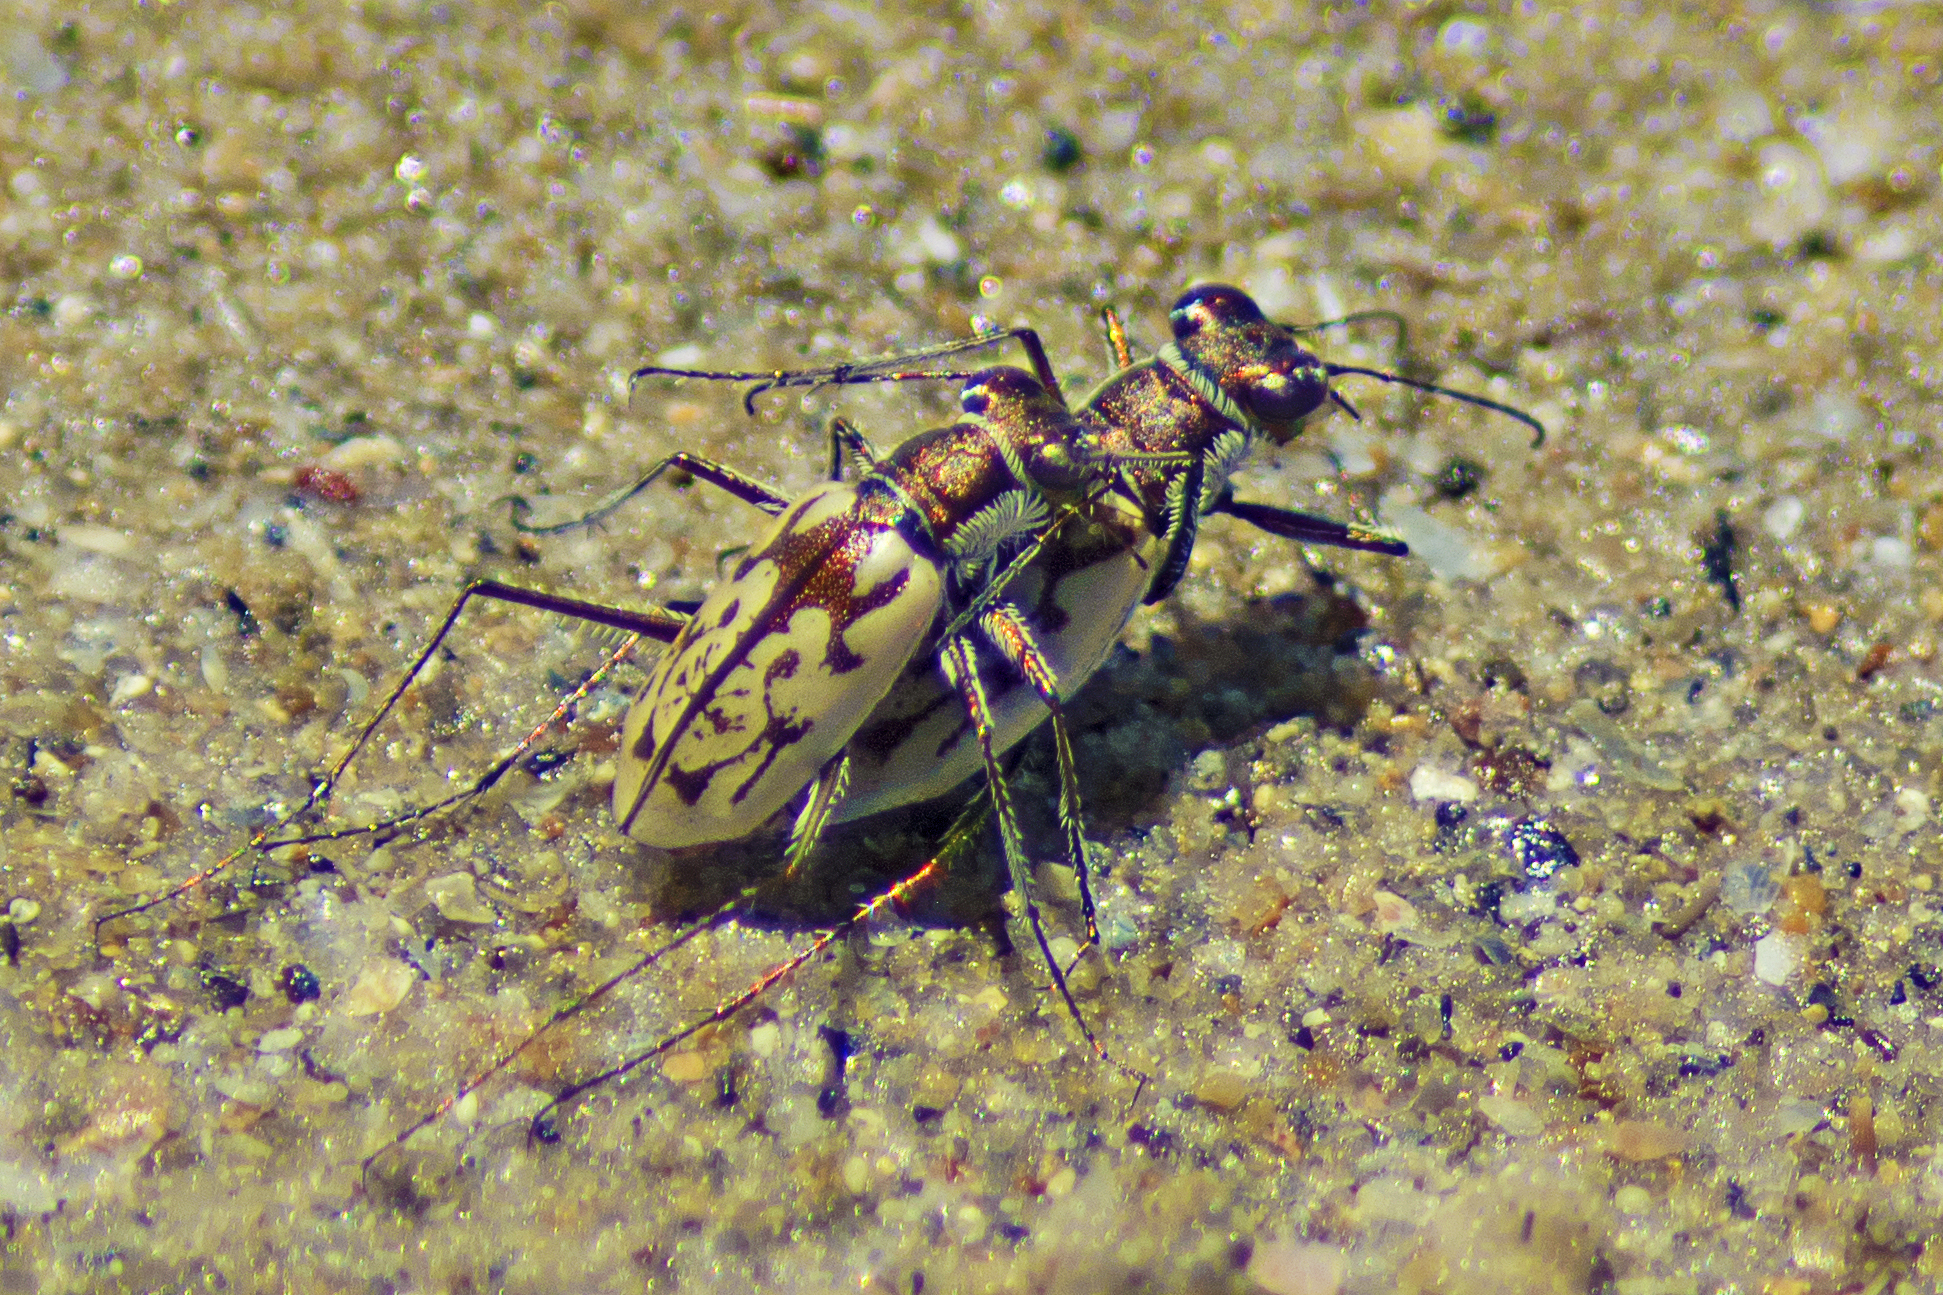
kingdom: Animalia
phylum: Arthropoda
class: Insecta
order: Coleoptera
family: Carabidae
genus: Hypaetha
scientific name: Hypaetha upsilon
